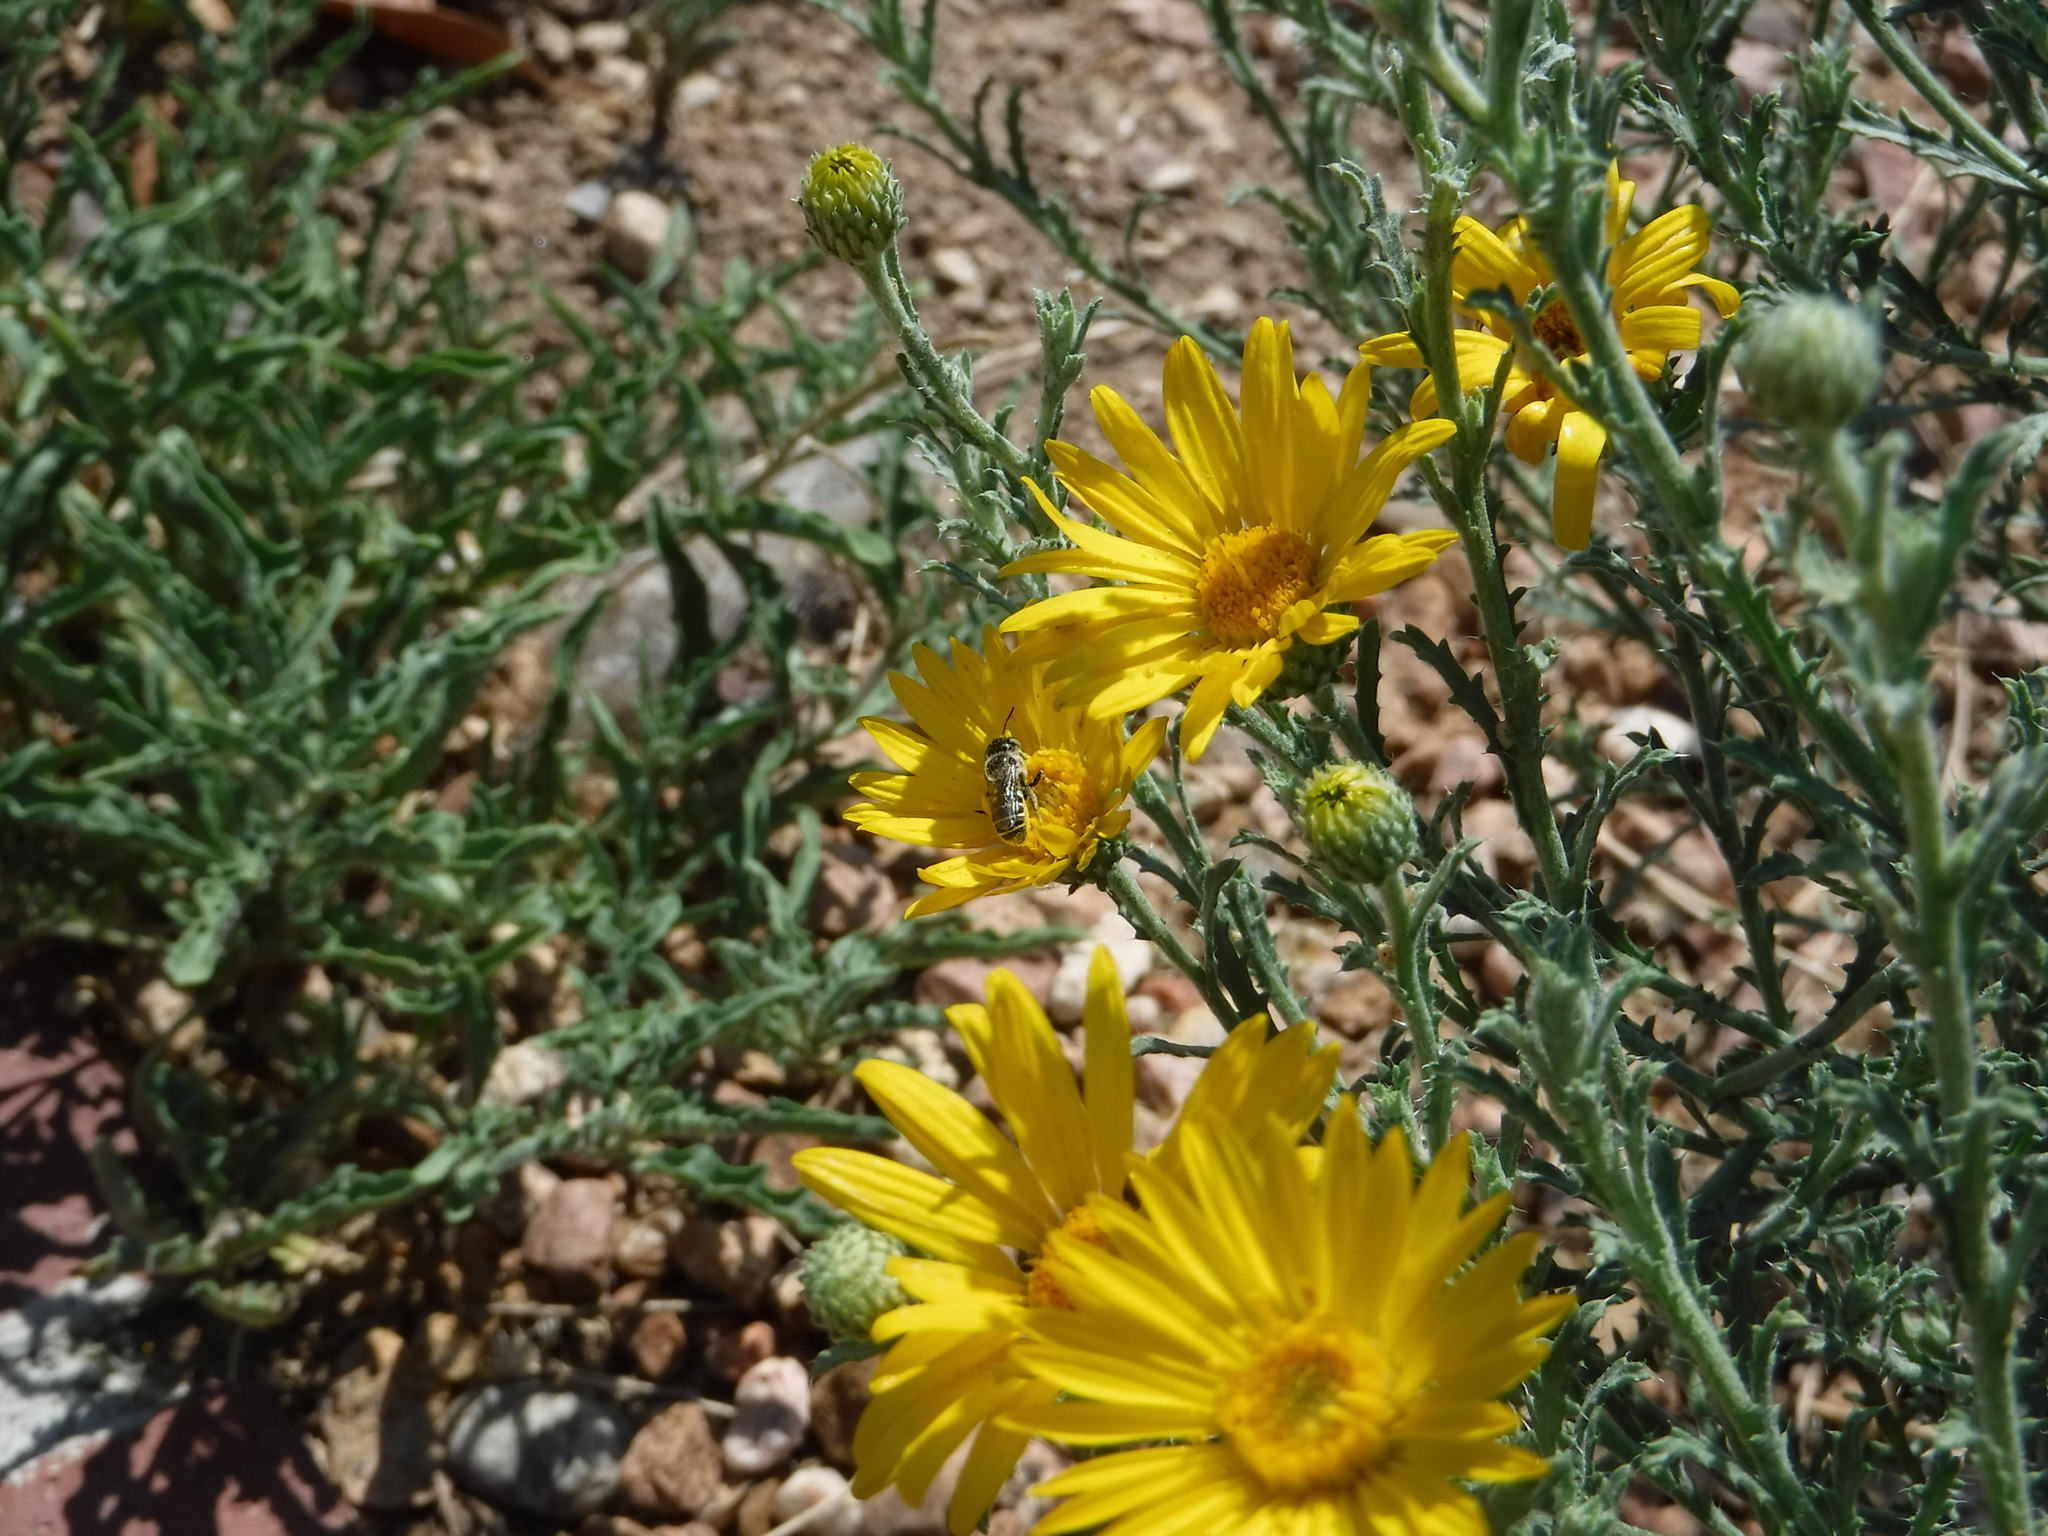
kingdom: Animalia
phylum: Arthropoda
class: Insecta
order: Hymenoptera
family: Megachilidae
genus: Ashmeadiella
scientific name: Ashmeadiella
